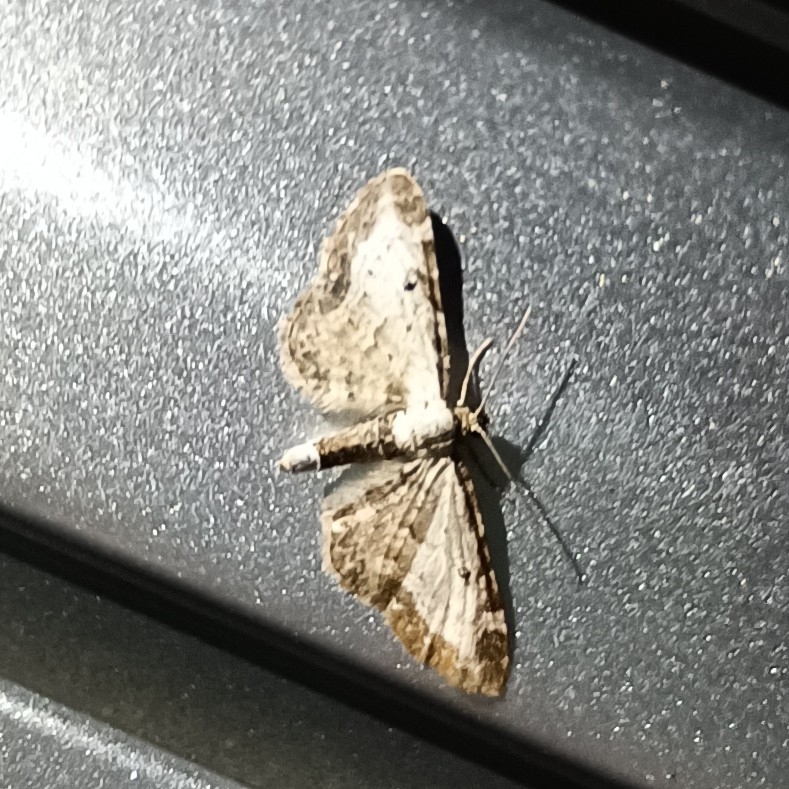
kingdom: Animalia
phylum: Arthropoda
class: Insecta
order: Lepidoptera
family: Geometridae
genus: Eupithecia
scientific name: Eupithecia succenturiata
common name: Bordered pug
